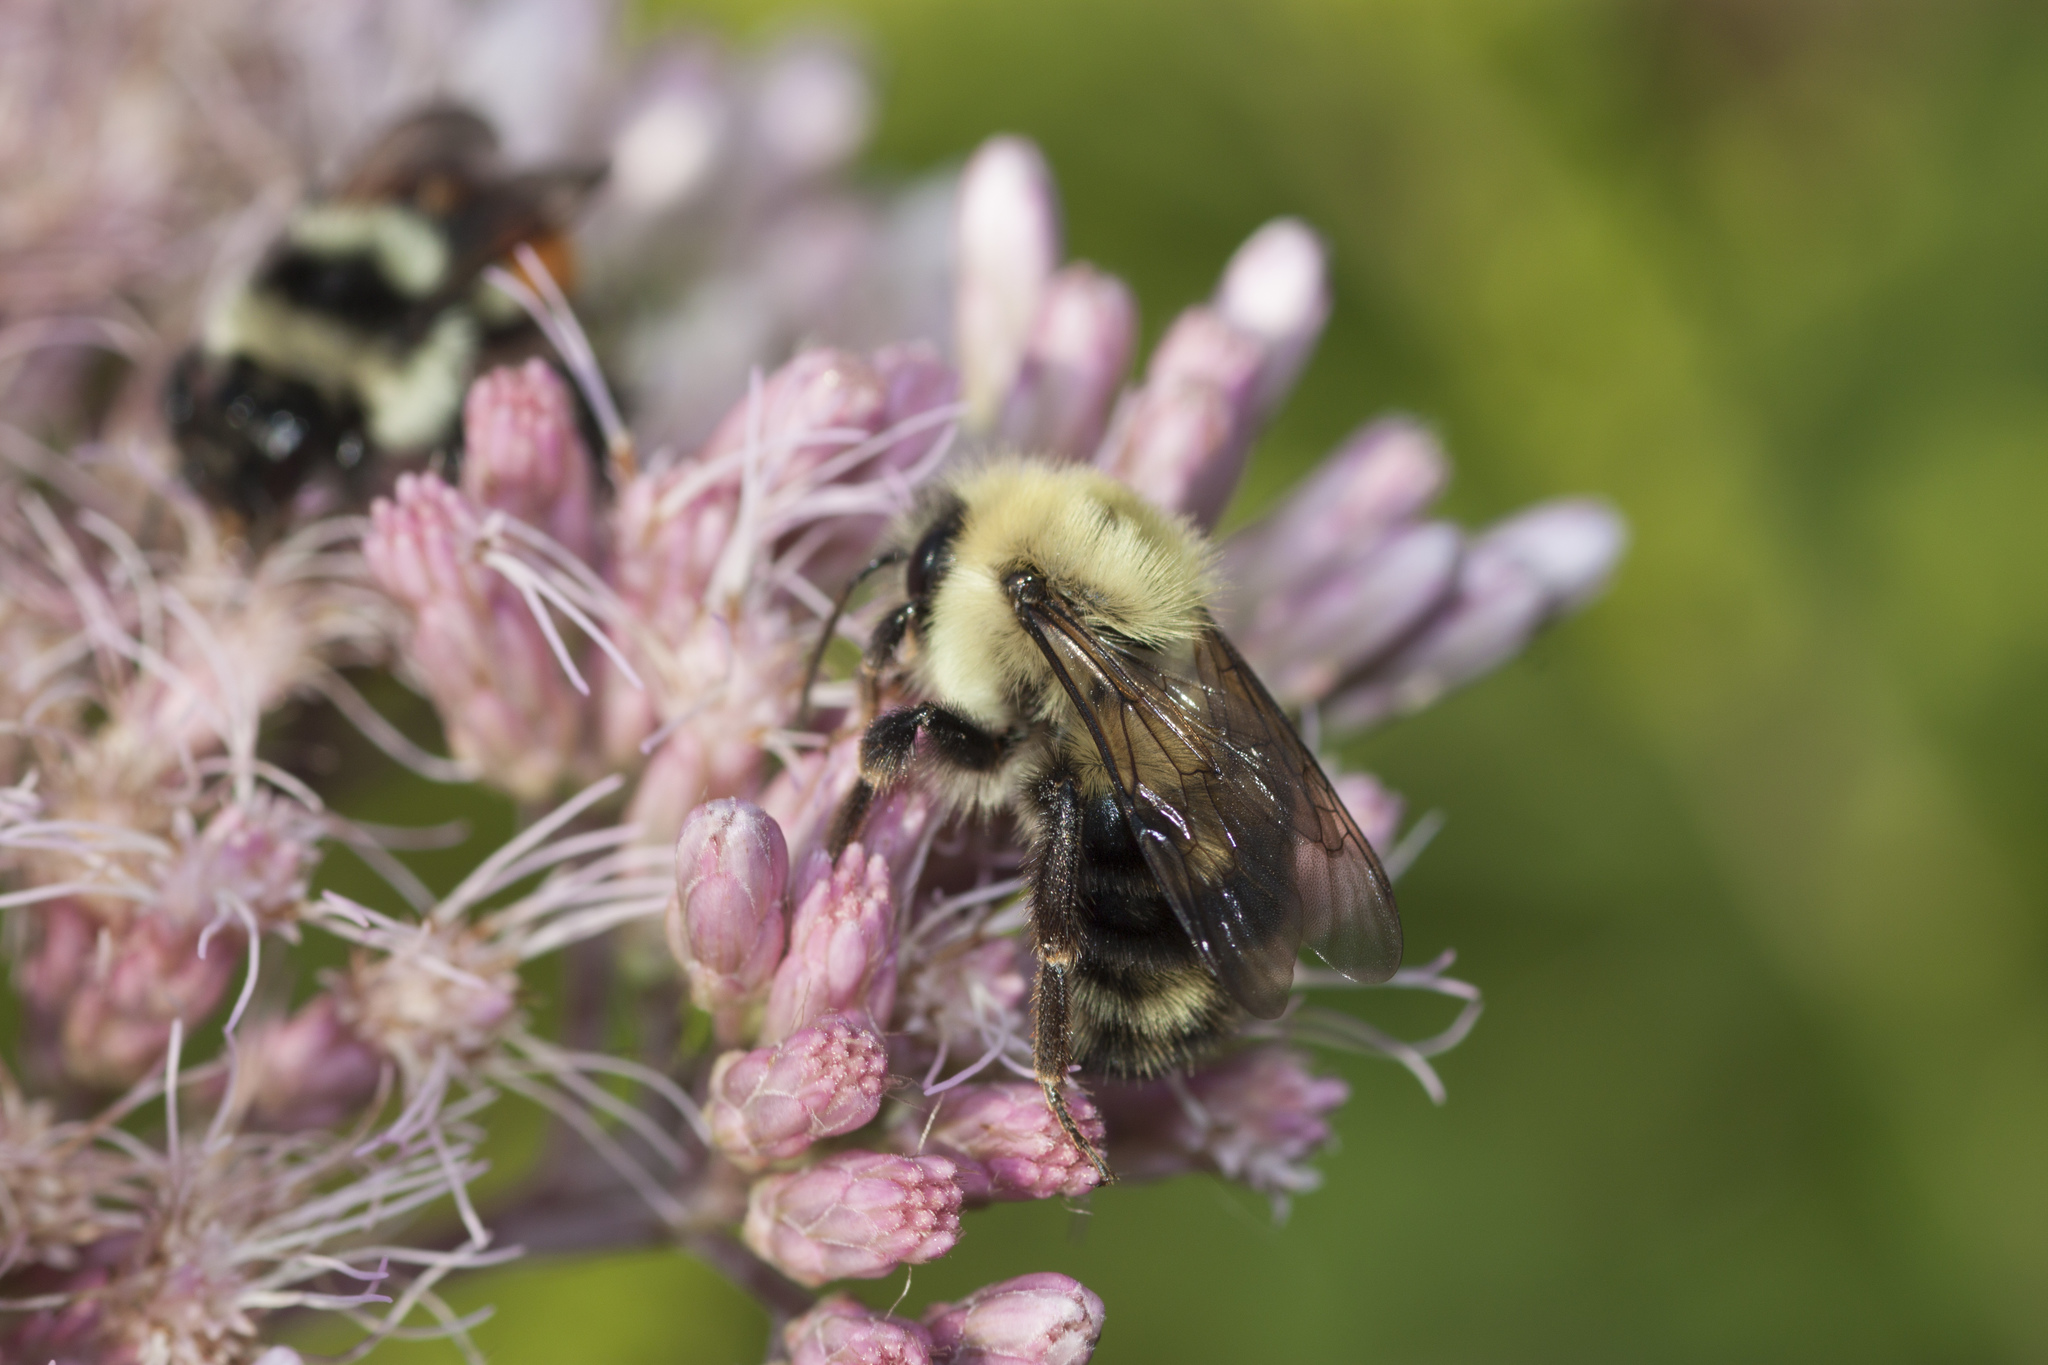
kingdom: Animalia
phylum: Arthropoda
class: Insecta
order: Hymenoptera
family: Apidae
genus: Bombus
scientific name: Bombus bimaculatus
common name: Two-spotted bumble bee
